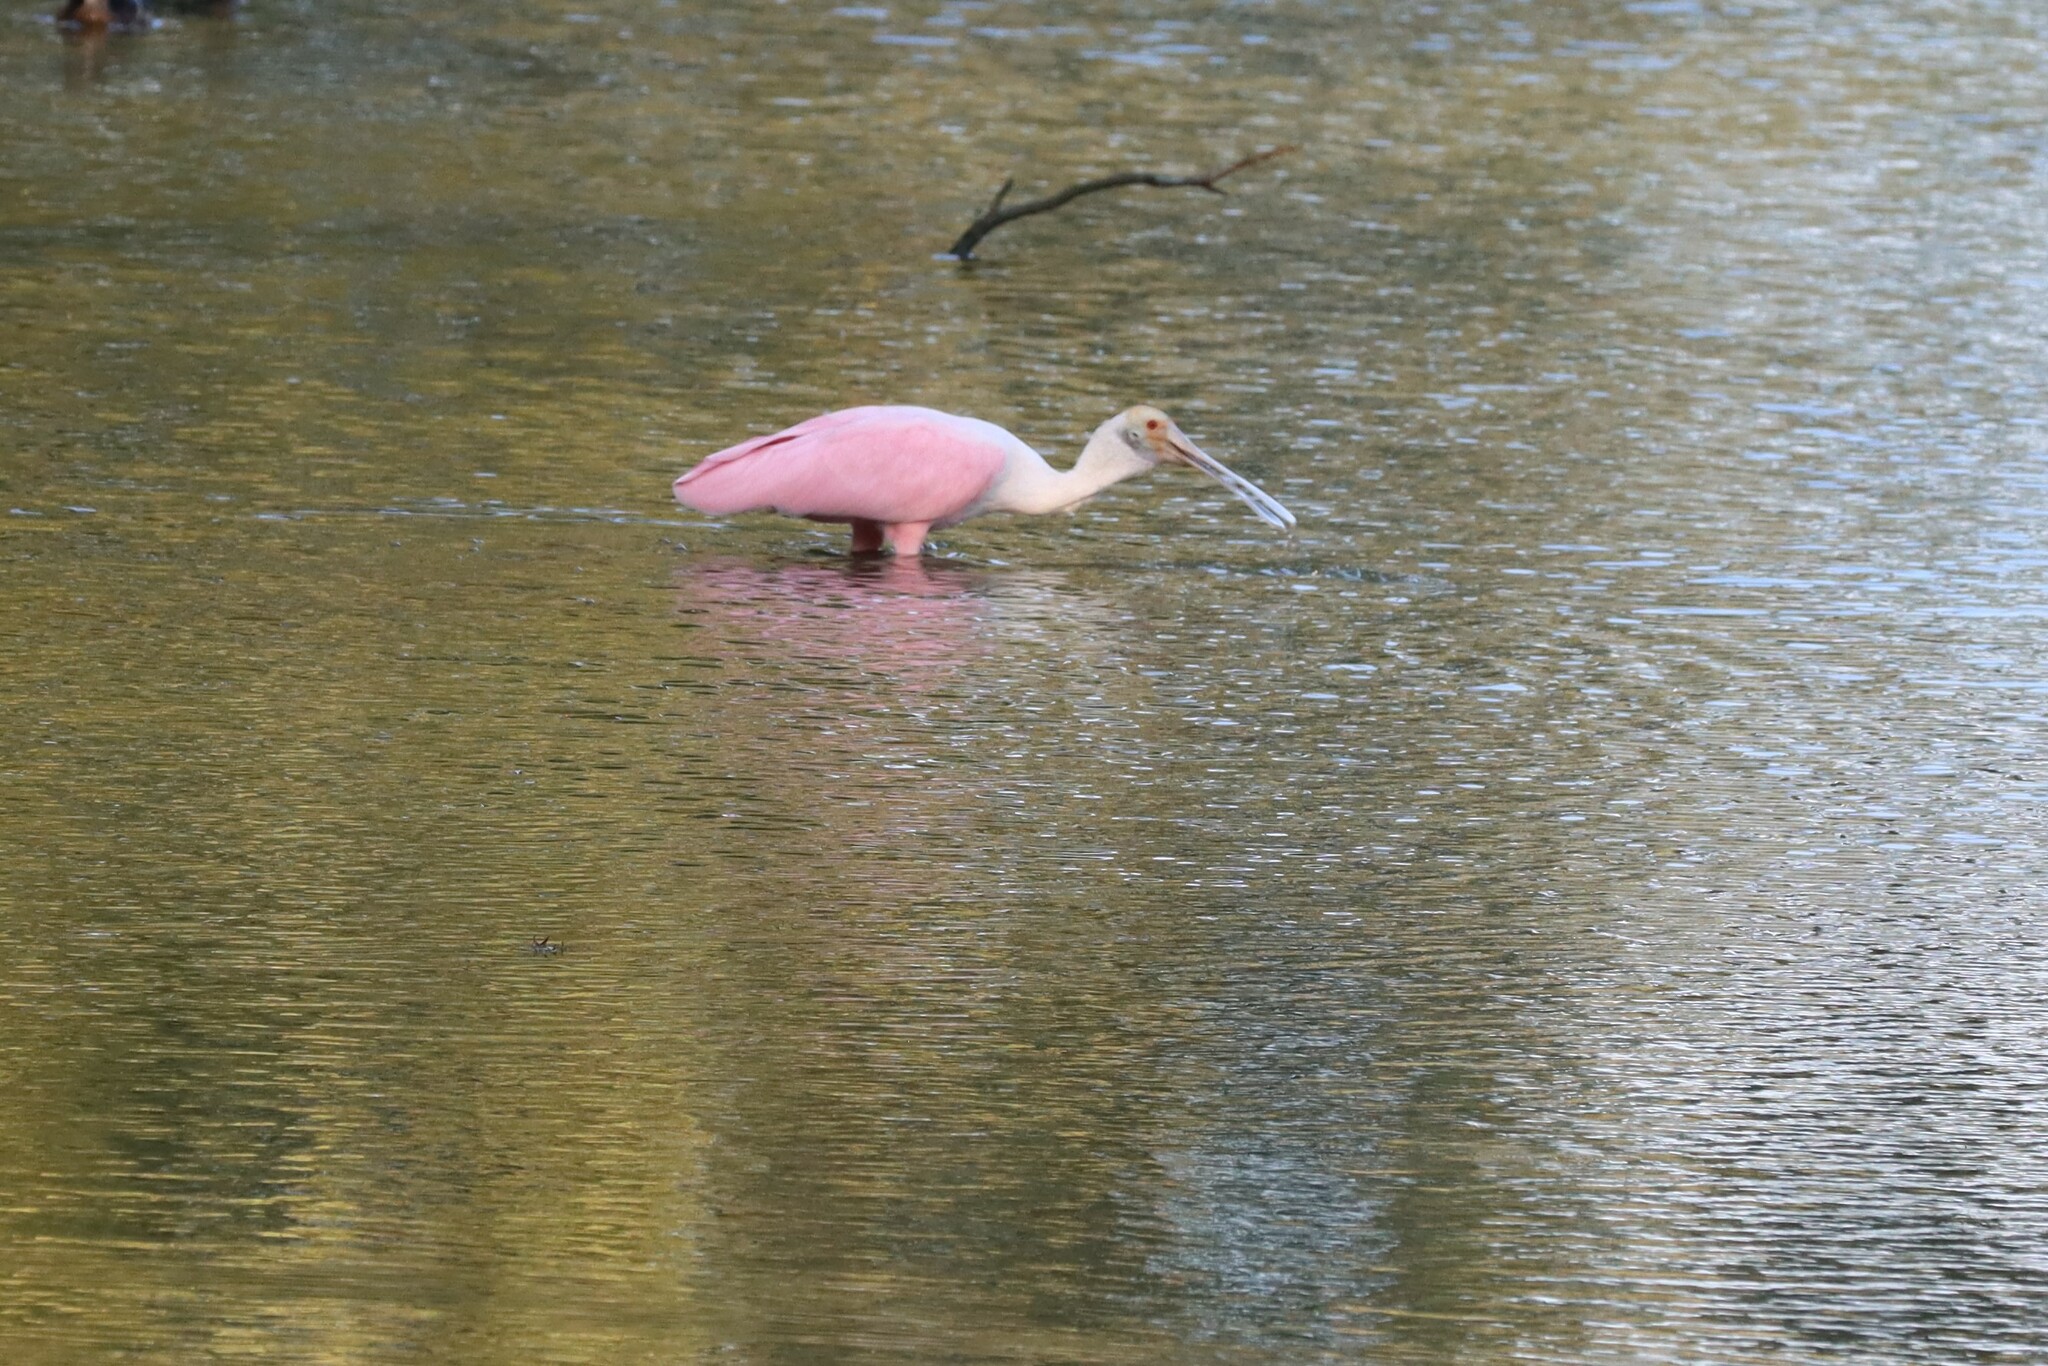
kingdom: Animalia
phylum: Chordata
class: Aves
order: Pelecaniformes
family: Threskiornithidae
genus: Platalea
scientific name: Platalea ajaja
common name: Roseate spoonbill
